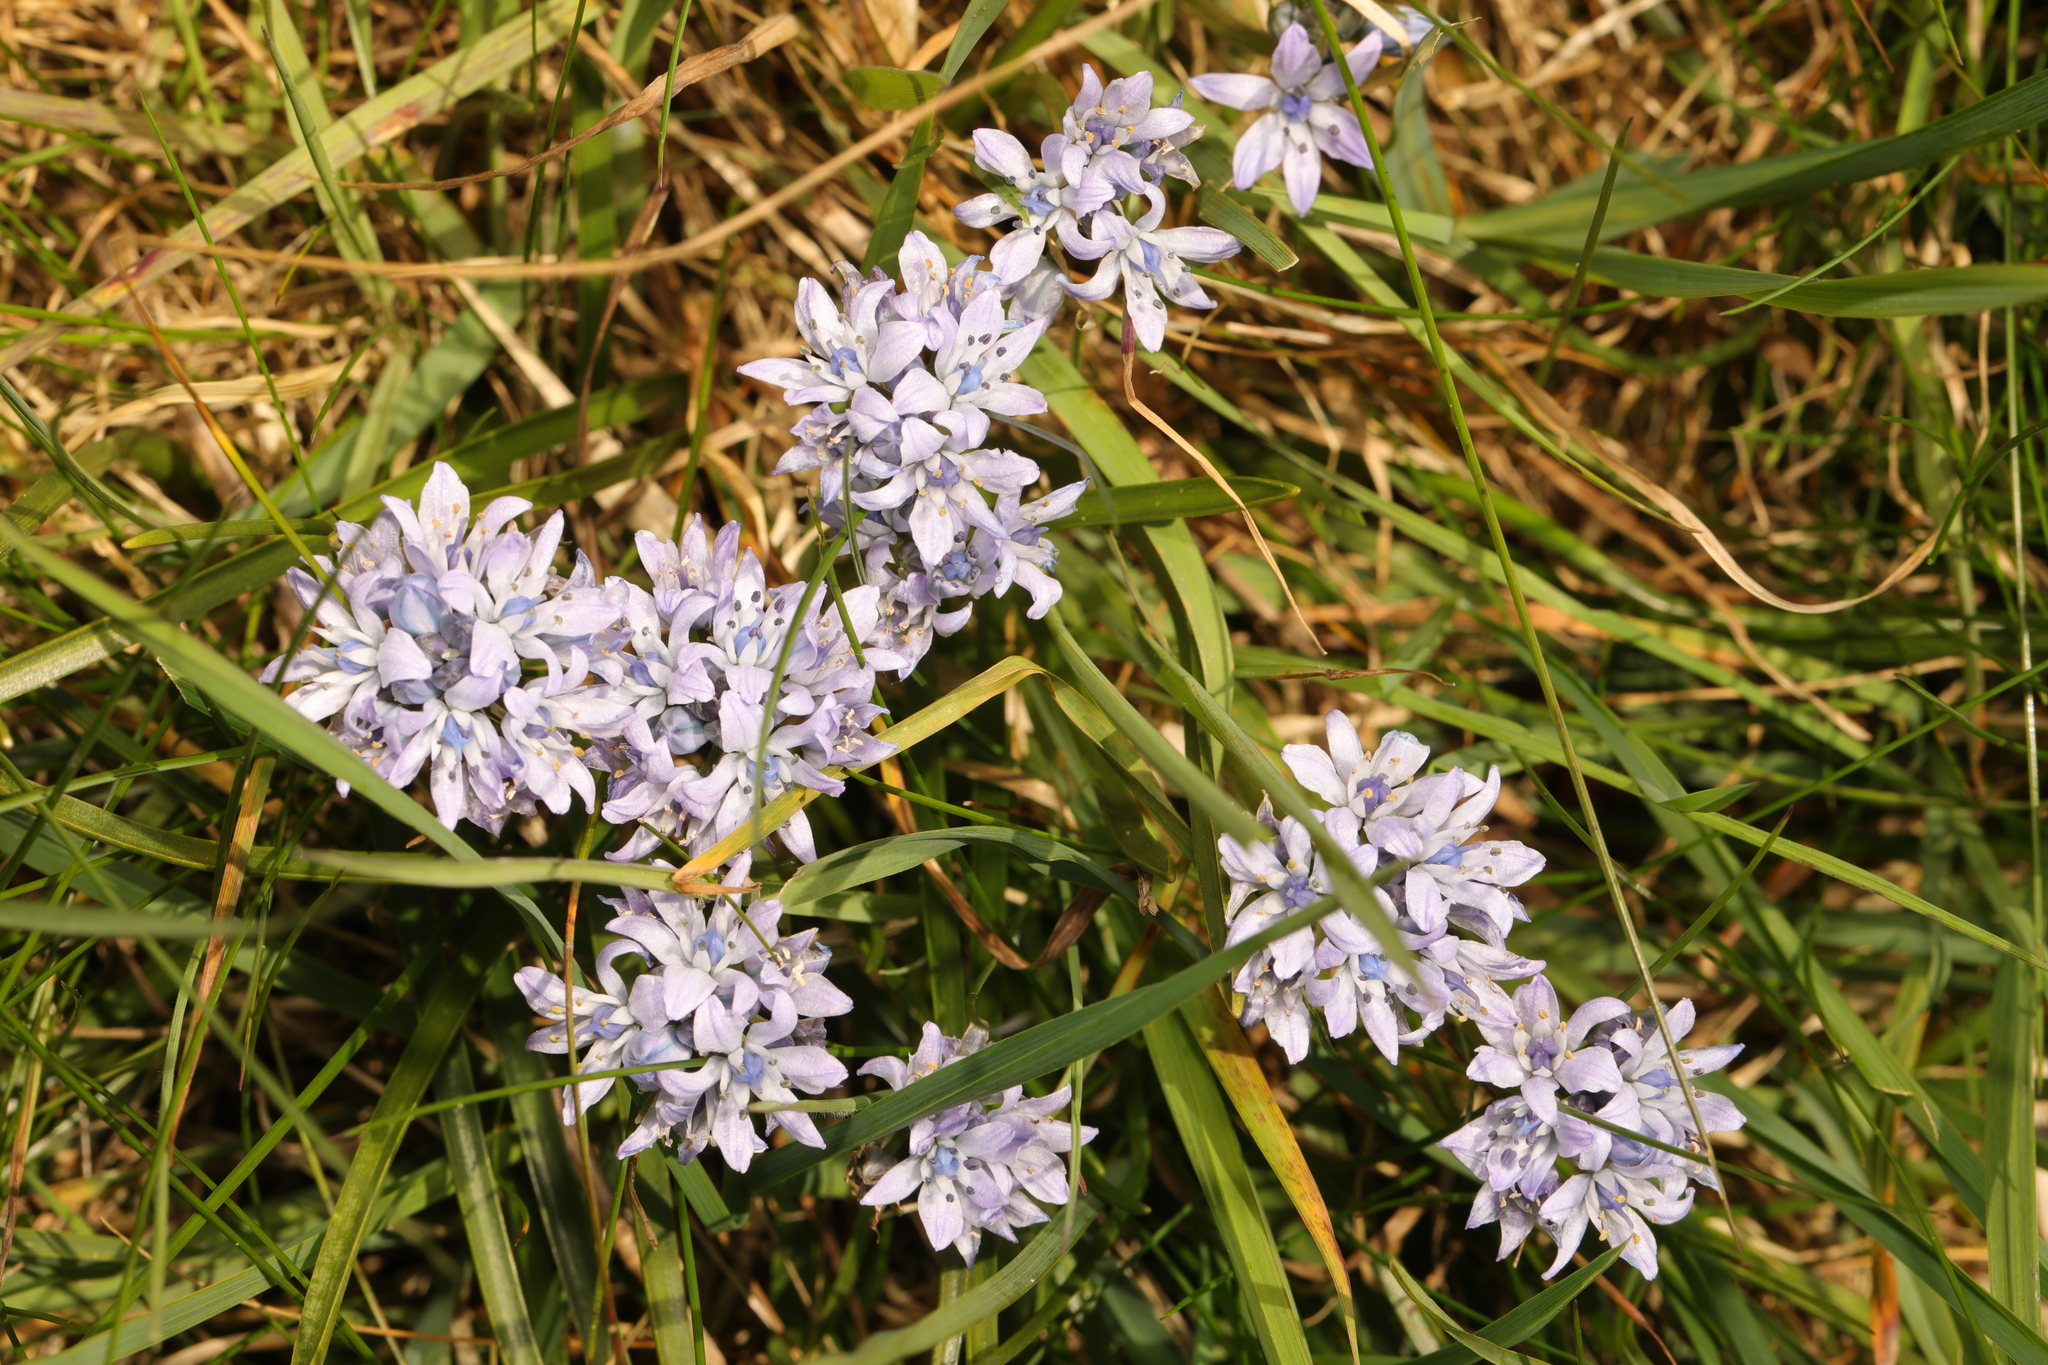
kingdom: Plantae
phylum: Tracheophyta
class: Liliopsida
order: Asparagales
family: Asparagaceae
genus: Scilla
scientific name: Scilla verna
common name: Spring squill
